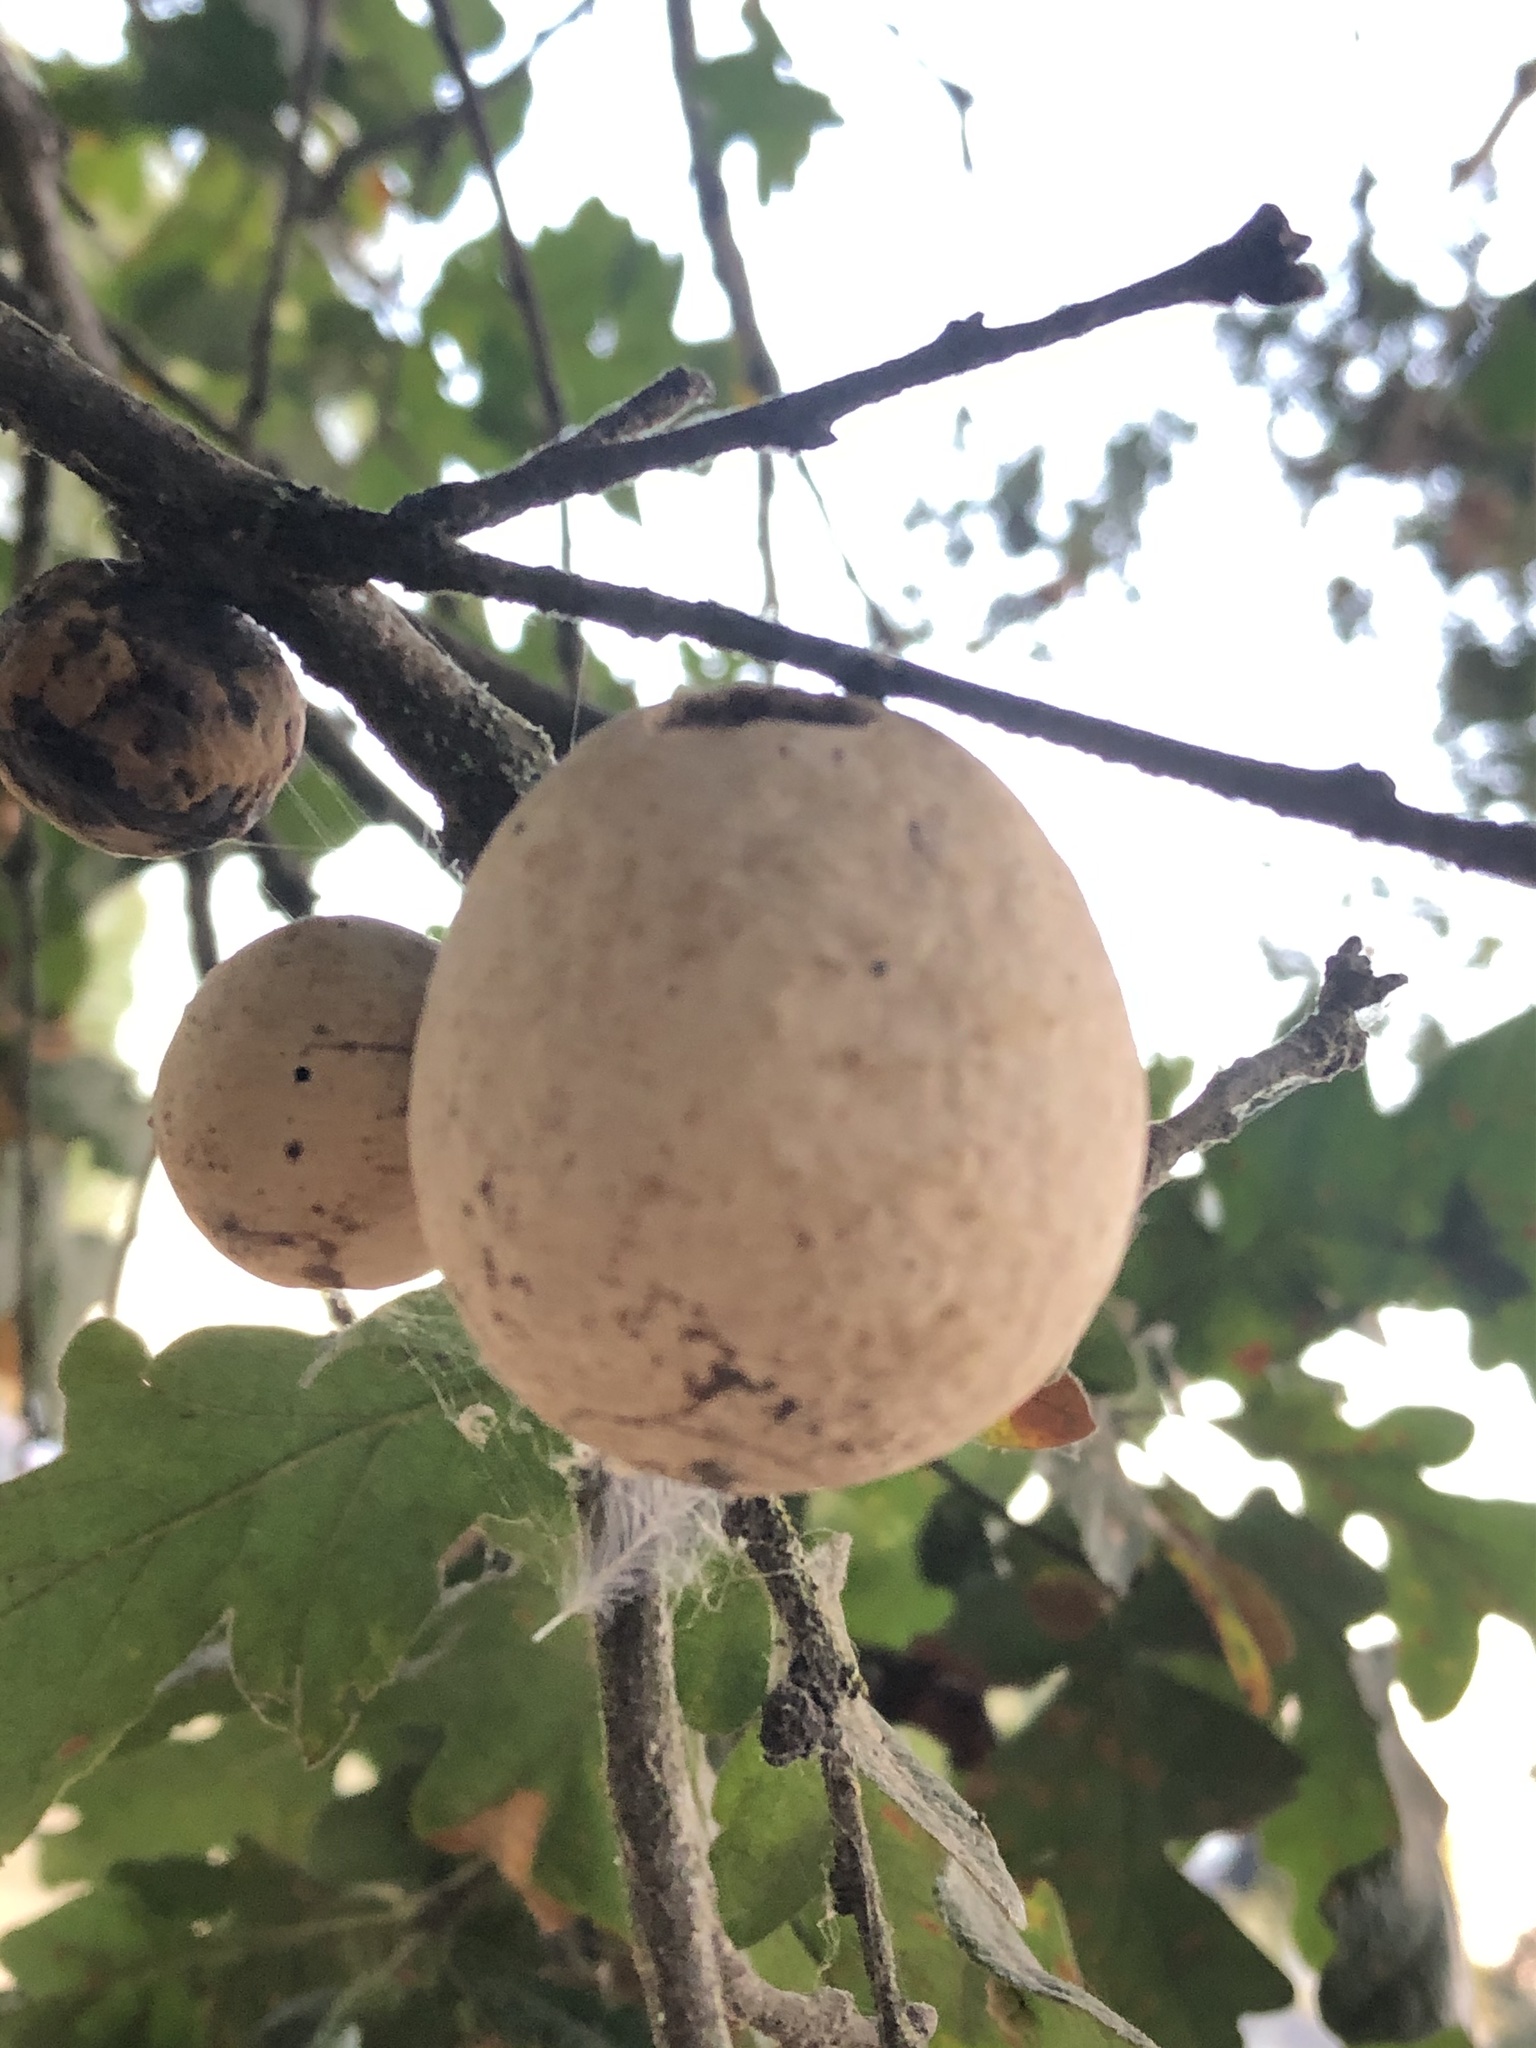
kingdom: Animalia
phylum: Arthropoda
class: Insecta
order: Hymenoptera
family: Cynipidae
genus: Andricus
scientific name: Andricus quercuscalifornicus
